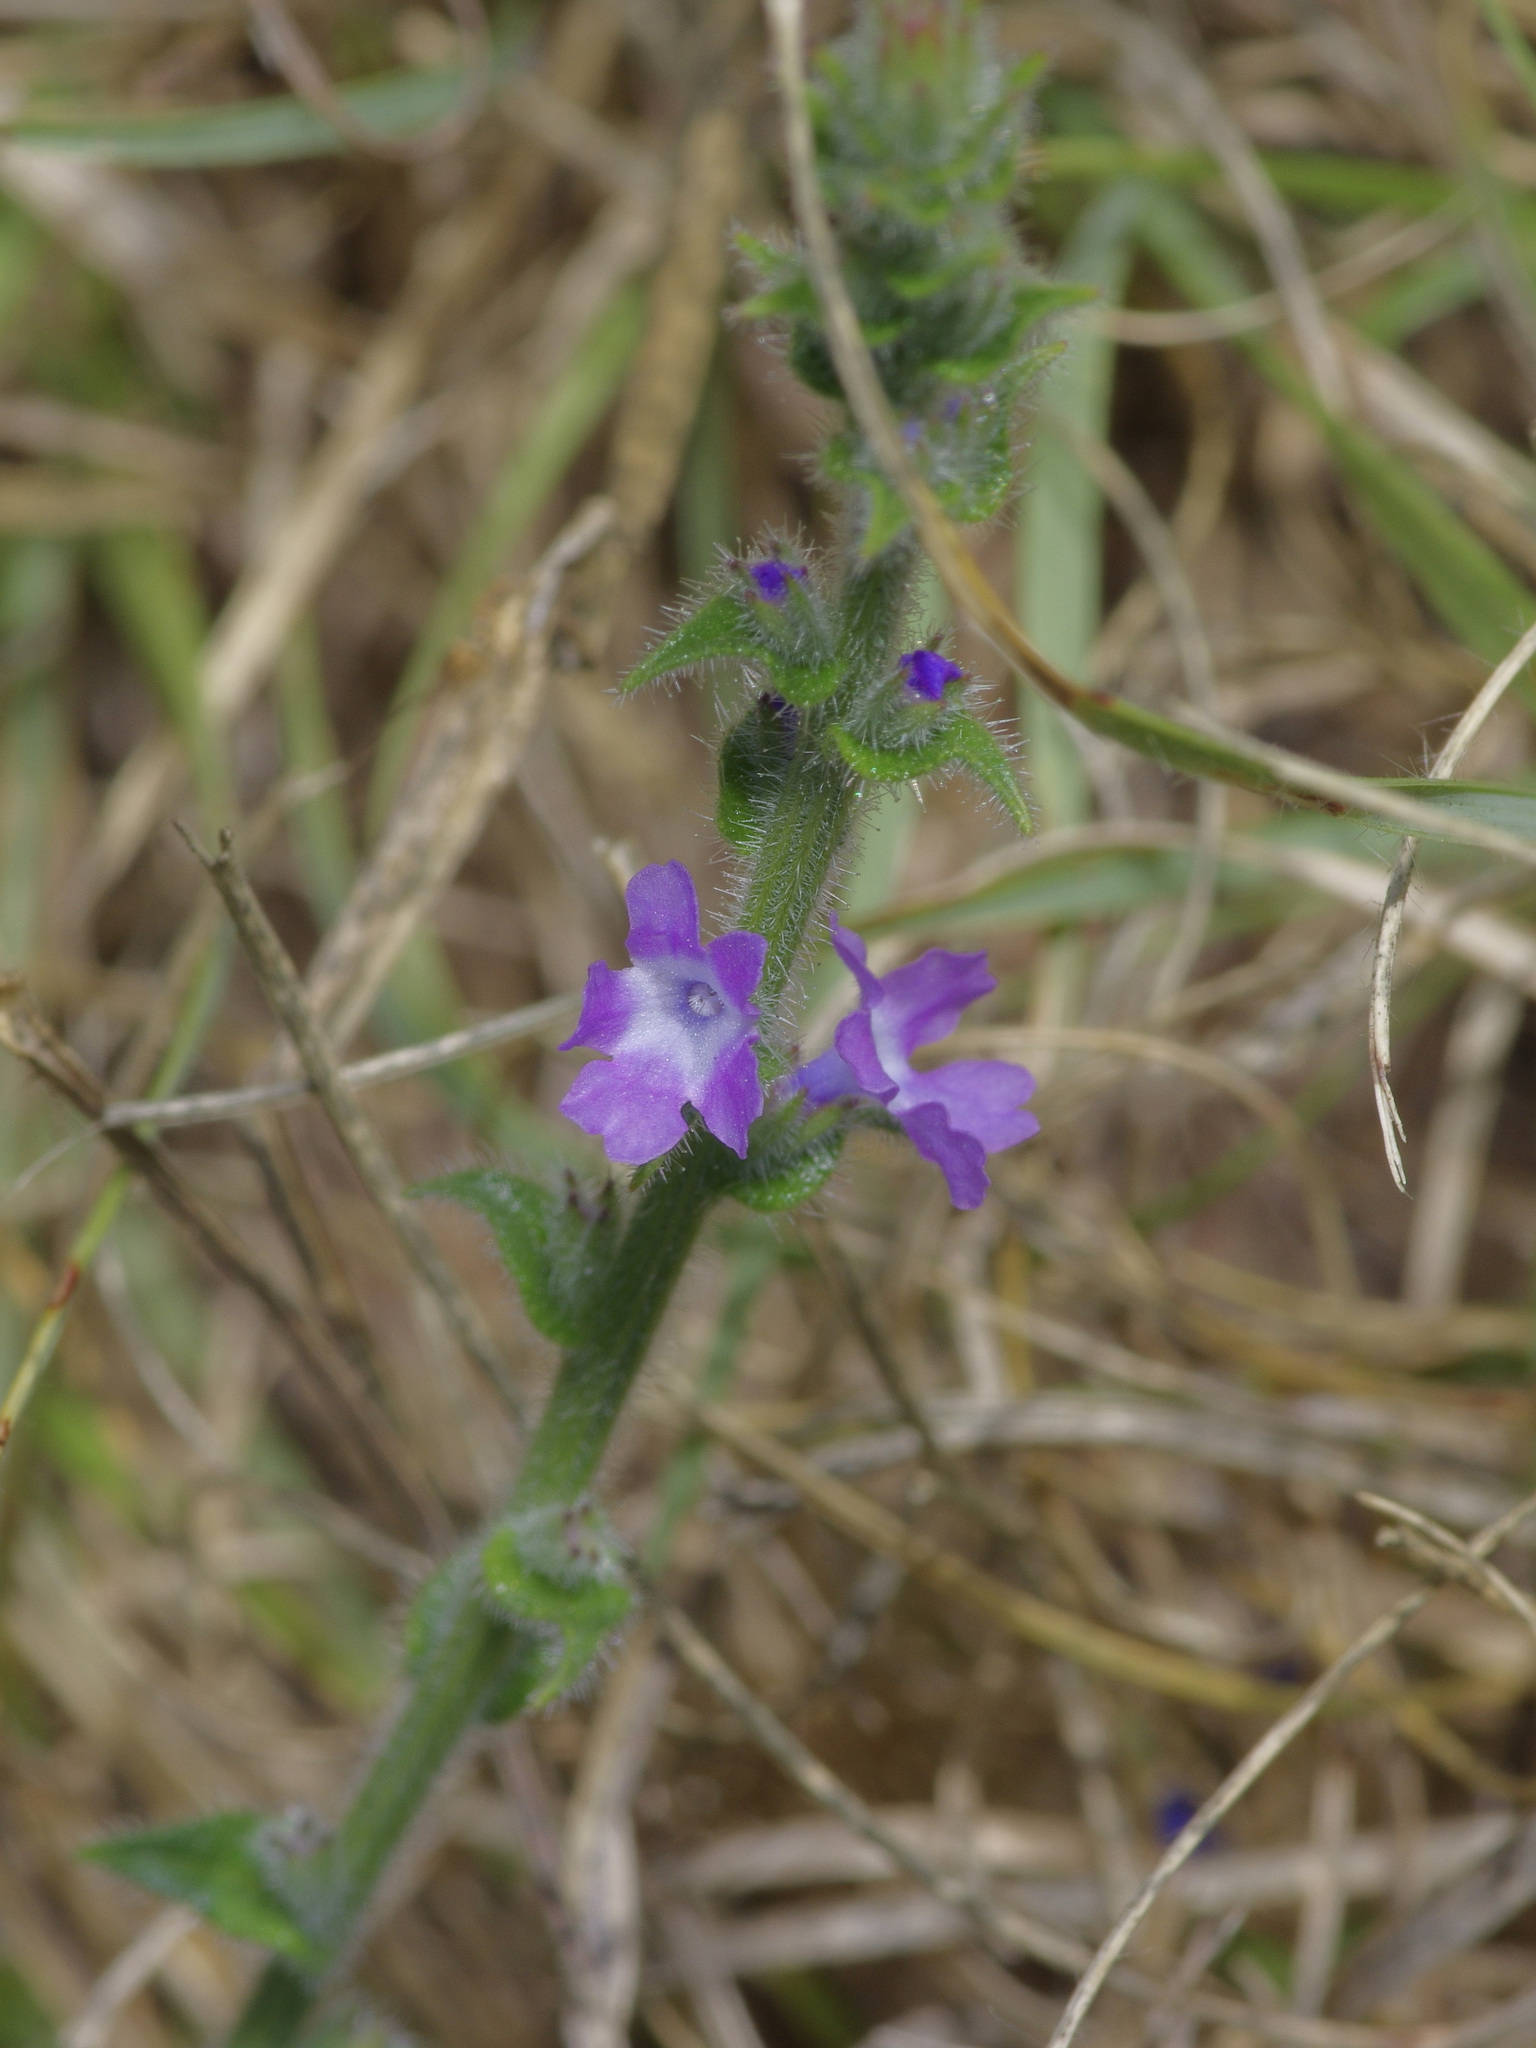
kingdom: Plantae
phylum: Tracheophyta
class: Magnoliopsida
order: Lamiales
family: Verbenaceae
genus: Verbena
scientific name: Verbena canescens
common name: Gray vervain
